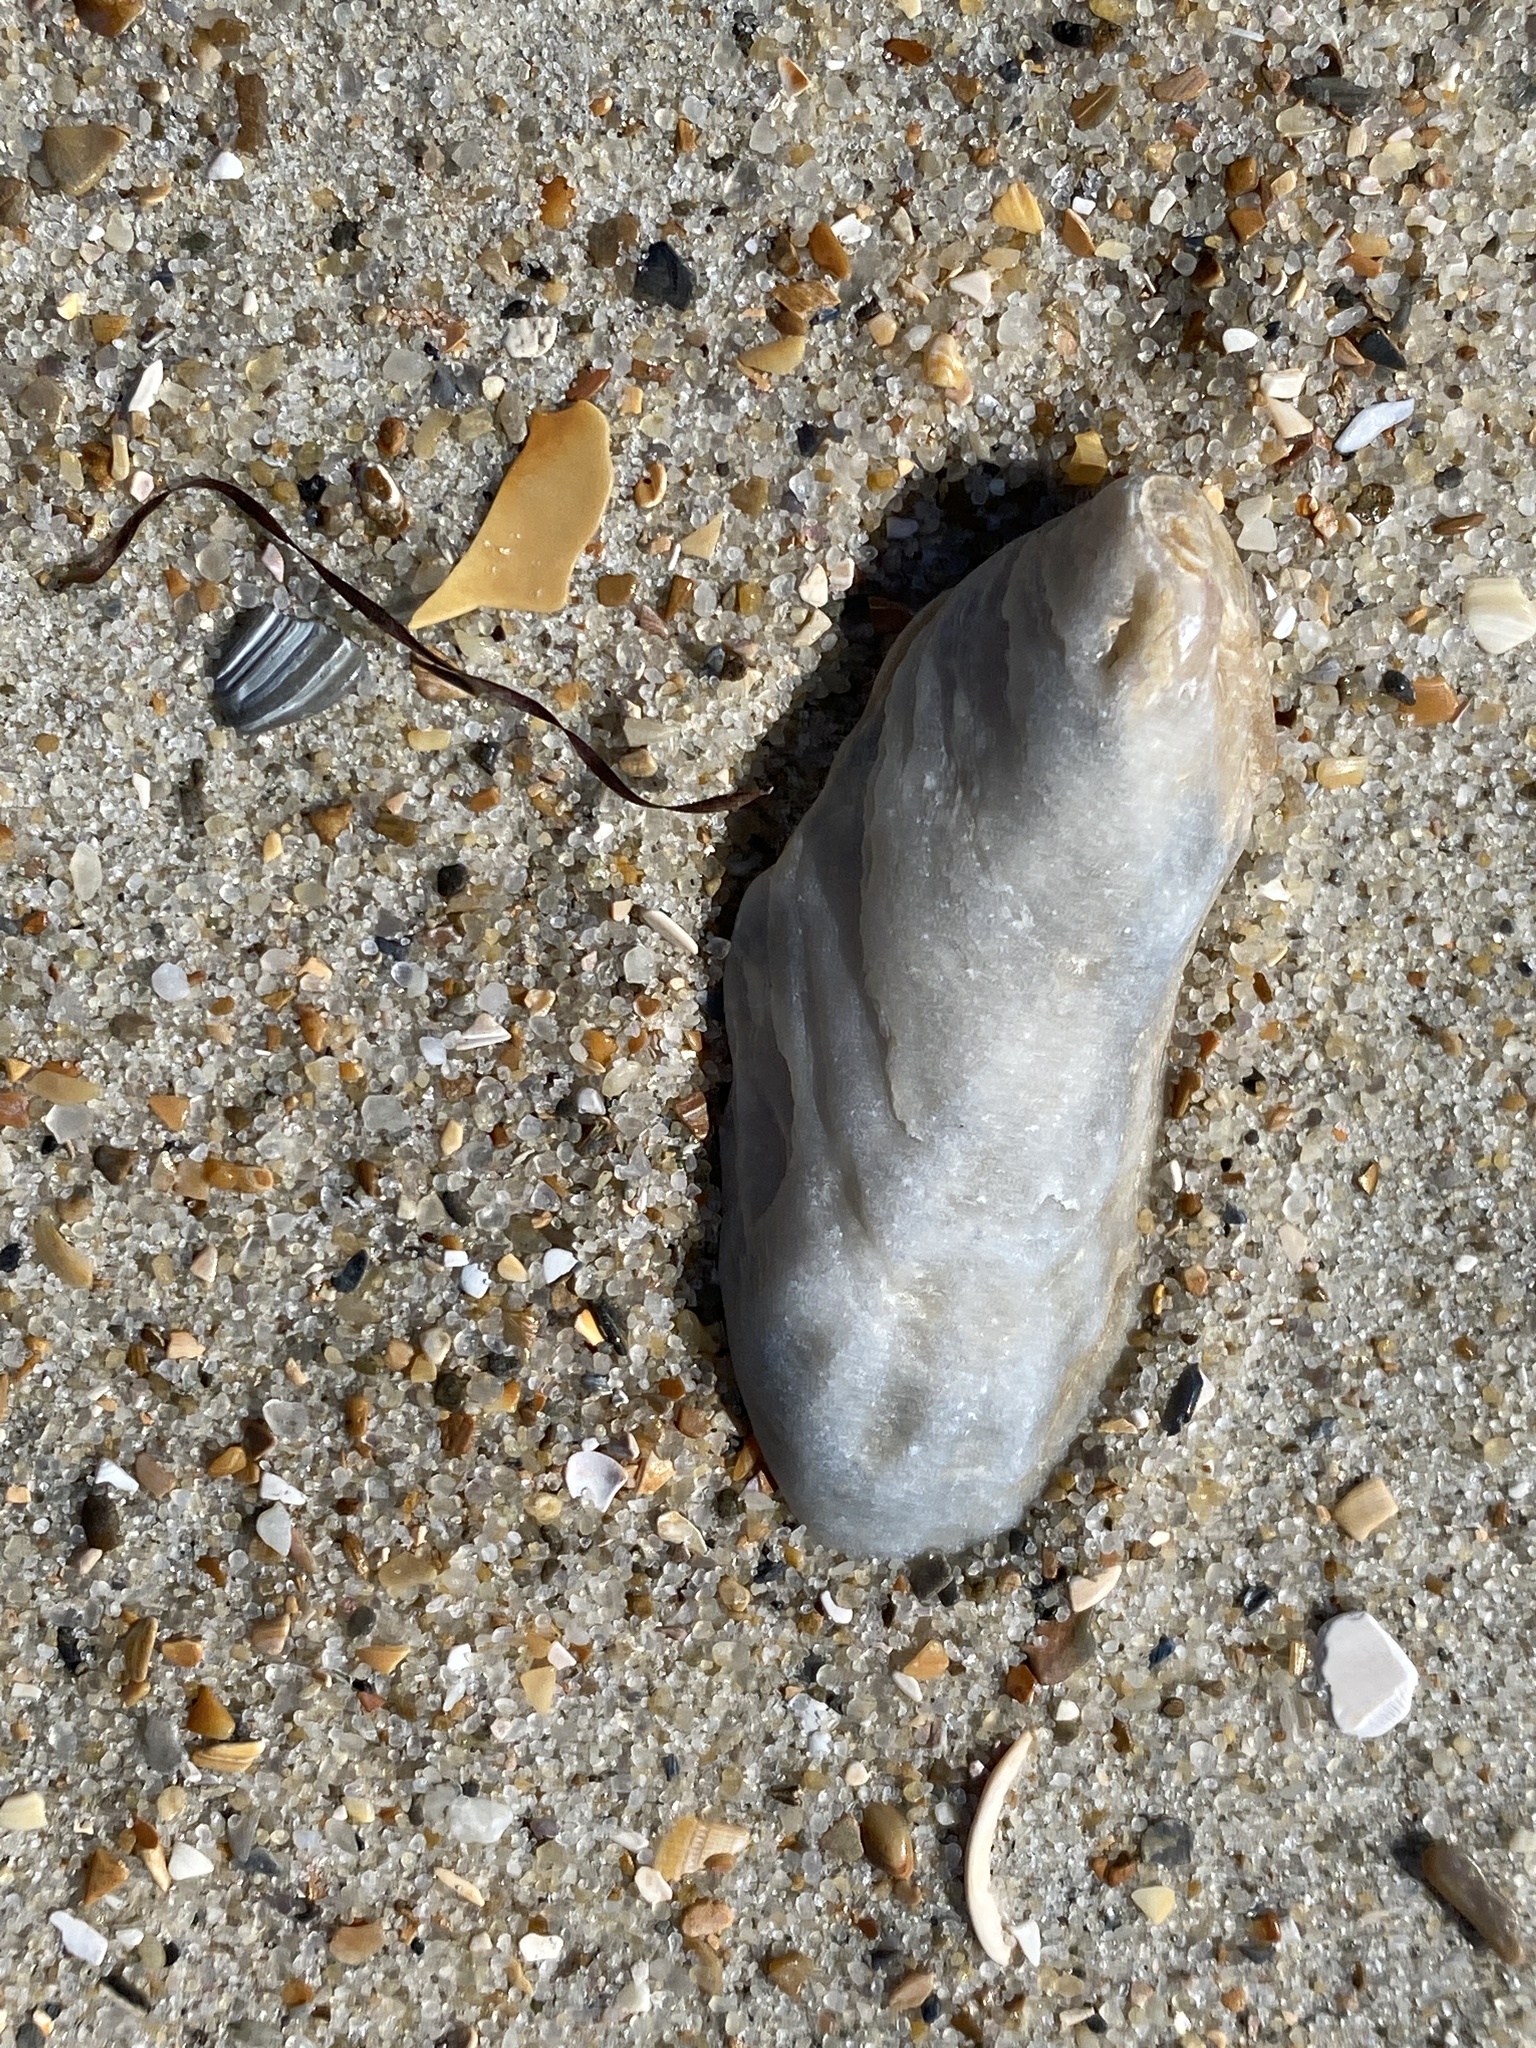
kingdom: Animalia
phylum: Mollusca
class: Bivalvia
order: Ostreida
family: Ostreidae
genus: Crassostrea
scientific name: Crassostrea virginica
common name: American oyster
